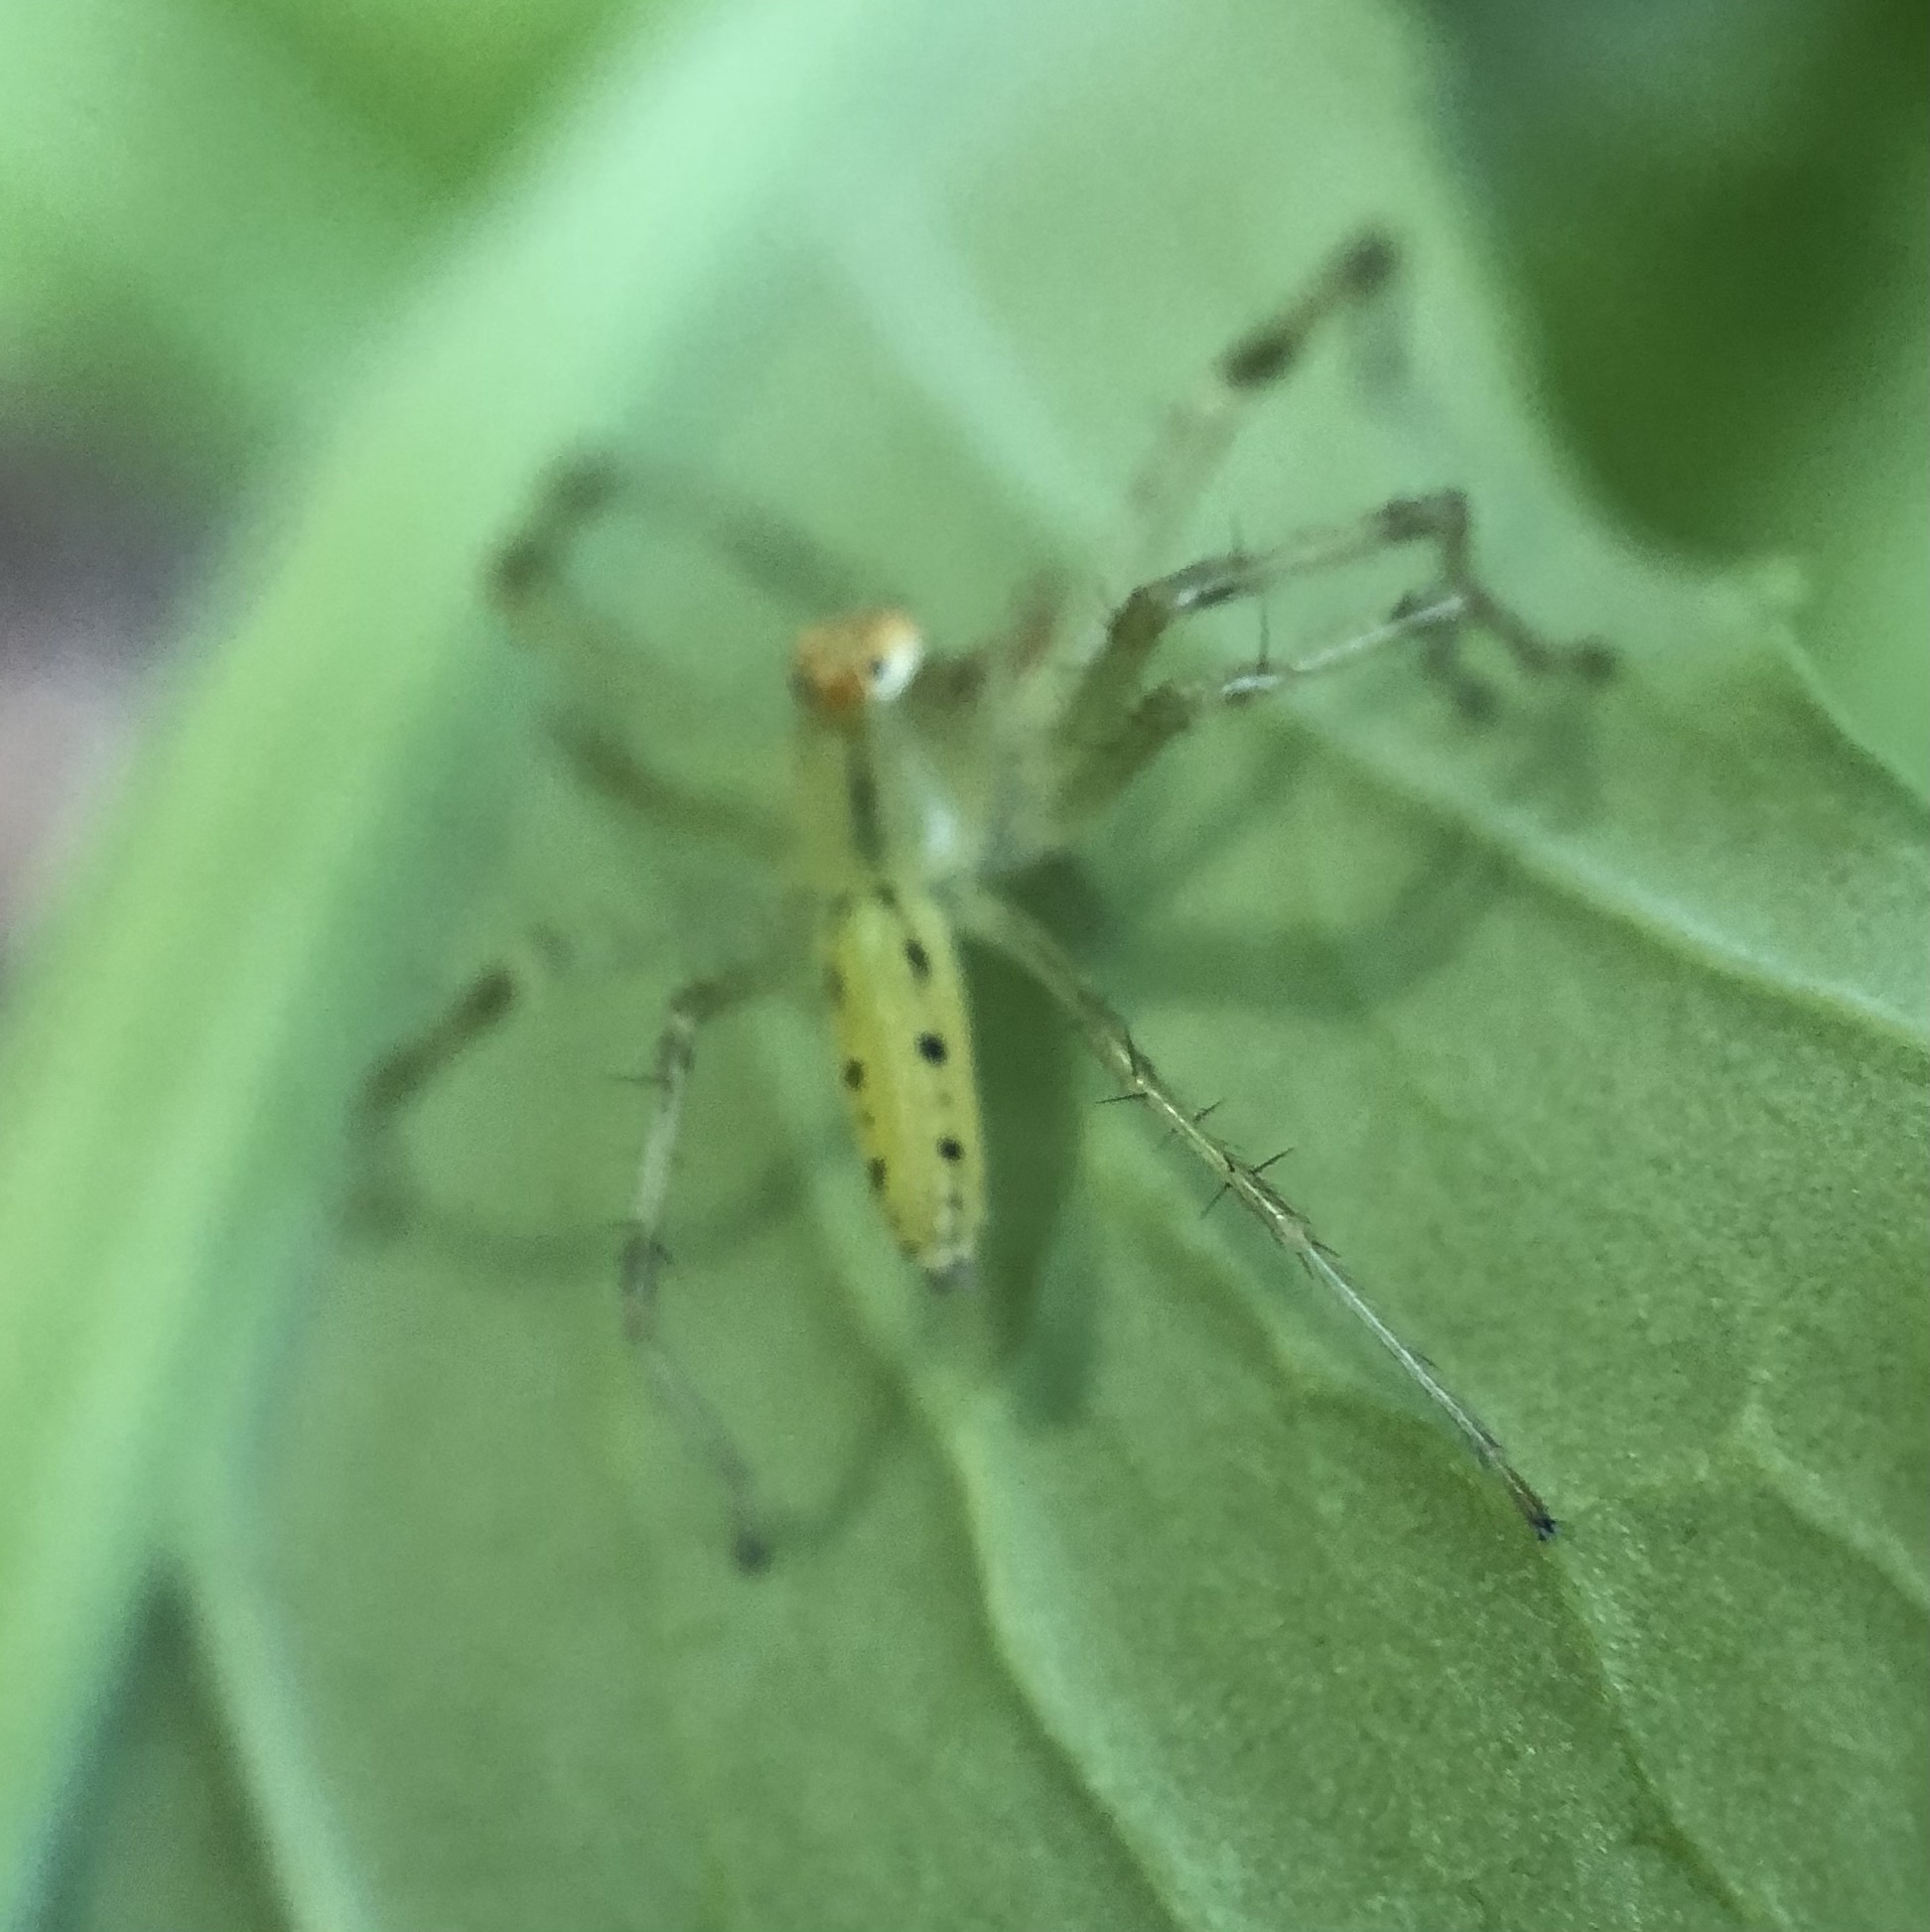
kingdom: Animalia
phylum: Arthropoda
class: Arachnida
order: Araneae
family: Salticidae
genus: Lyssomanes
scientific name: Lyssomanes viridis
